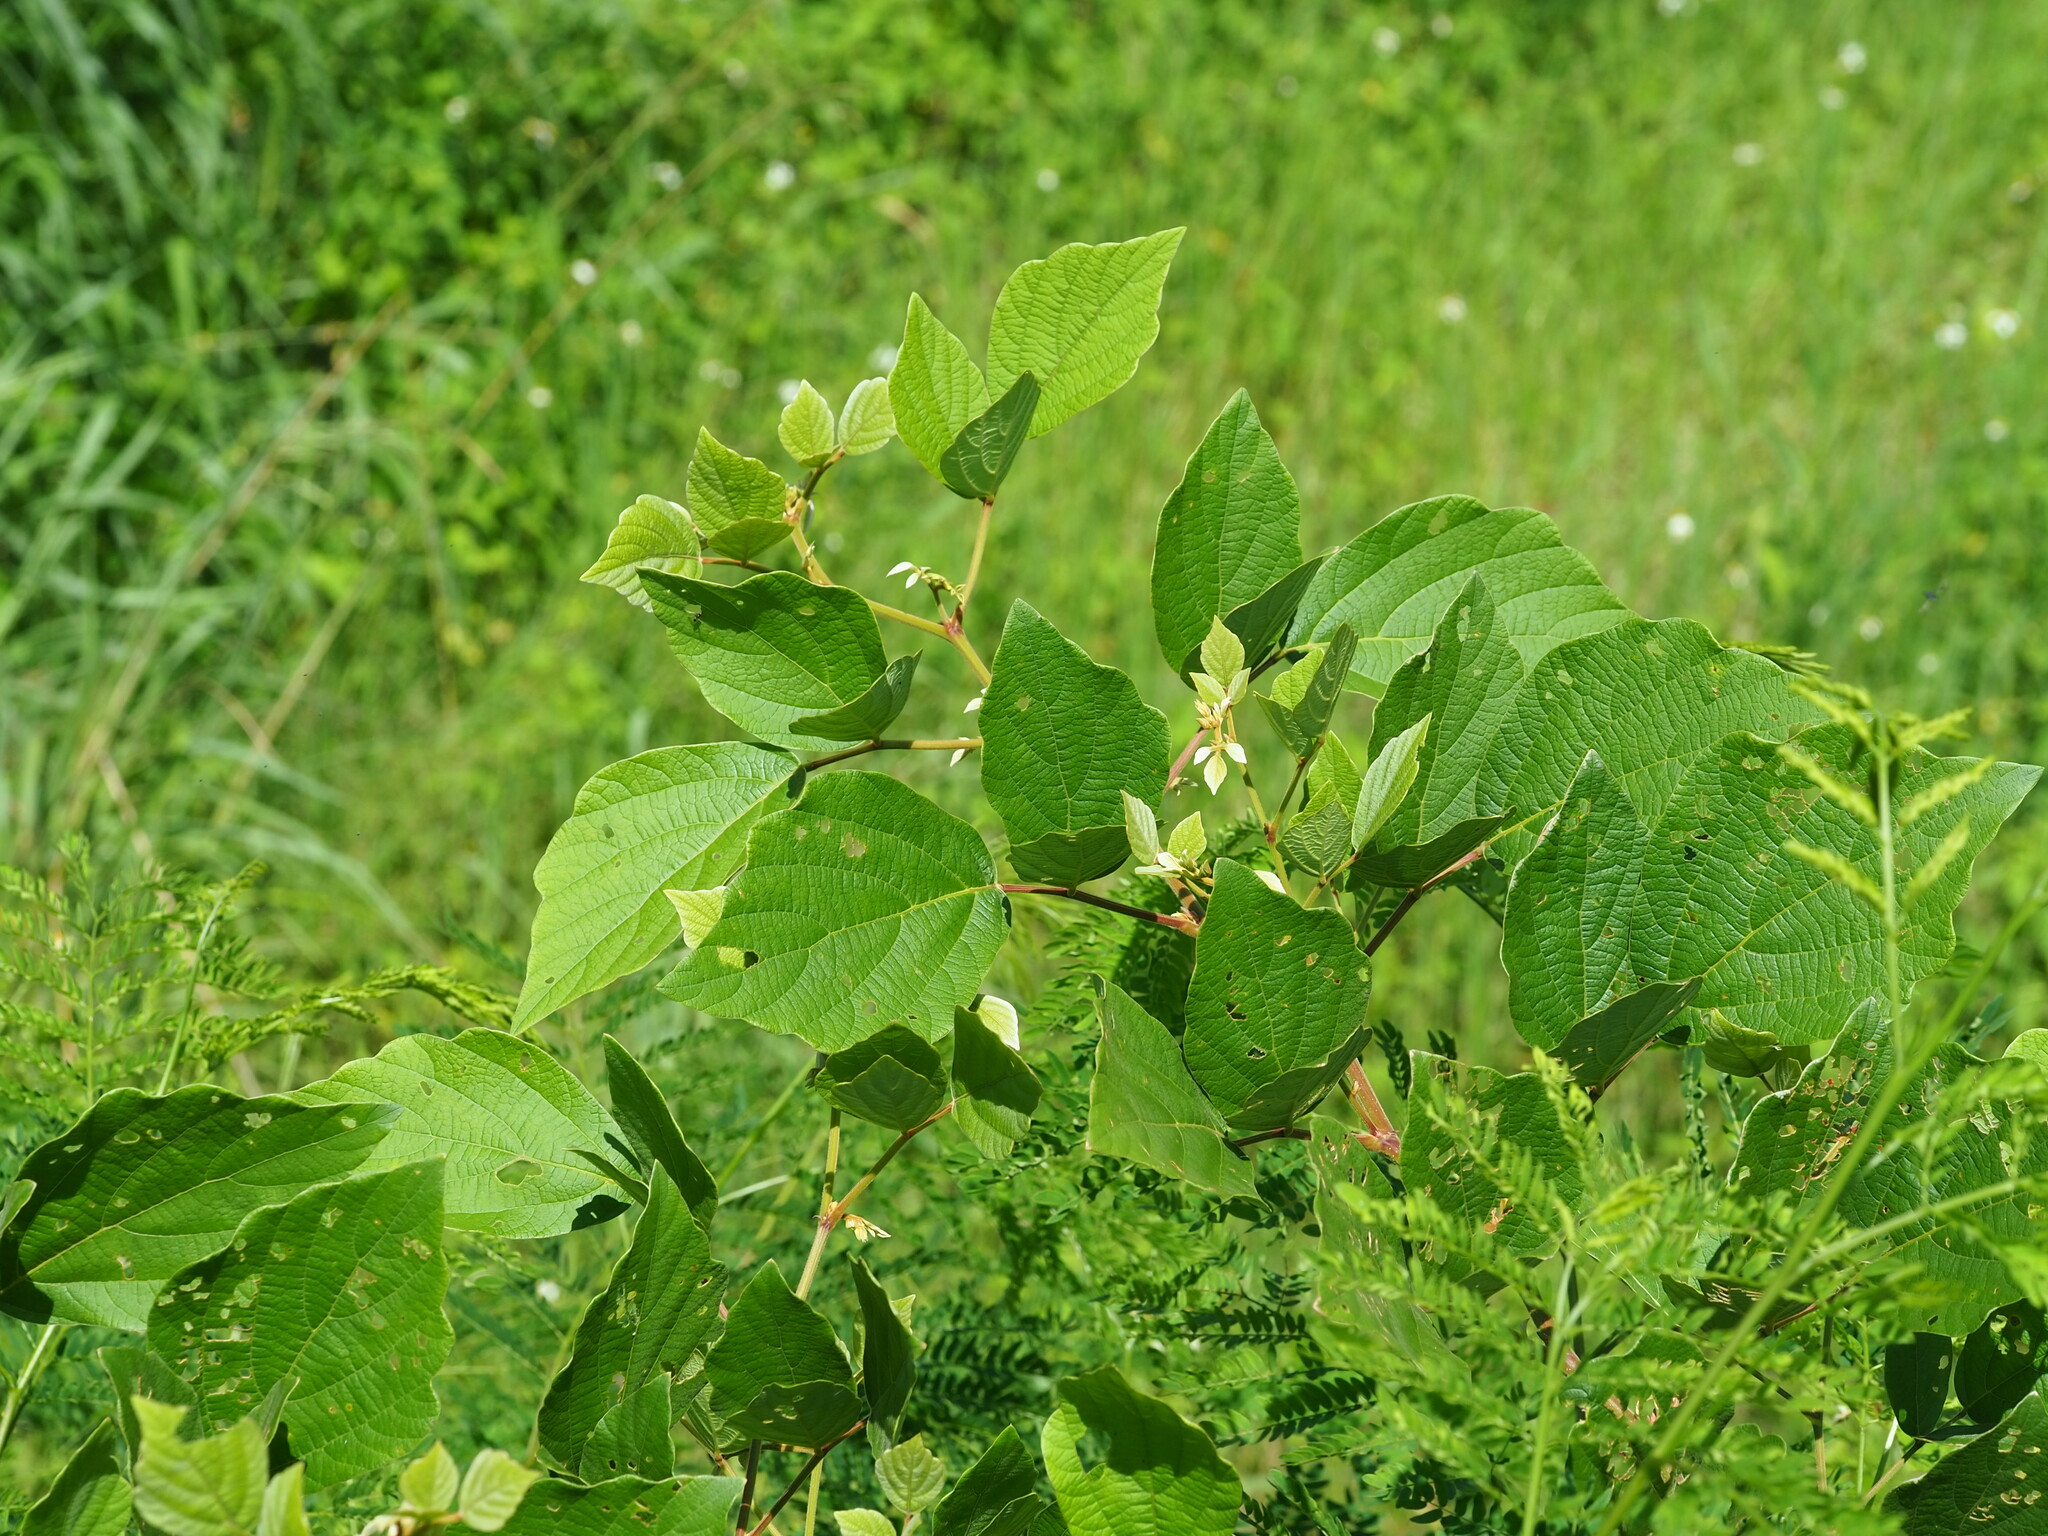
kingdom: Plantae
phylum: Tracheophyta
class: Magnoliopsida
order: Fabales
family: Fabaceae
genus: Puhuaea
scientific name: Puhuaea sequax
